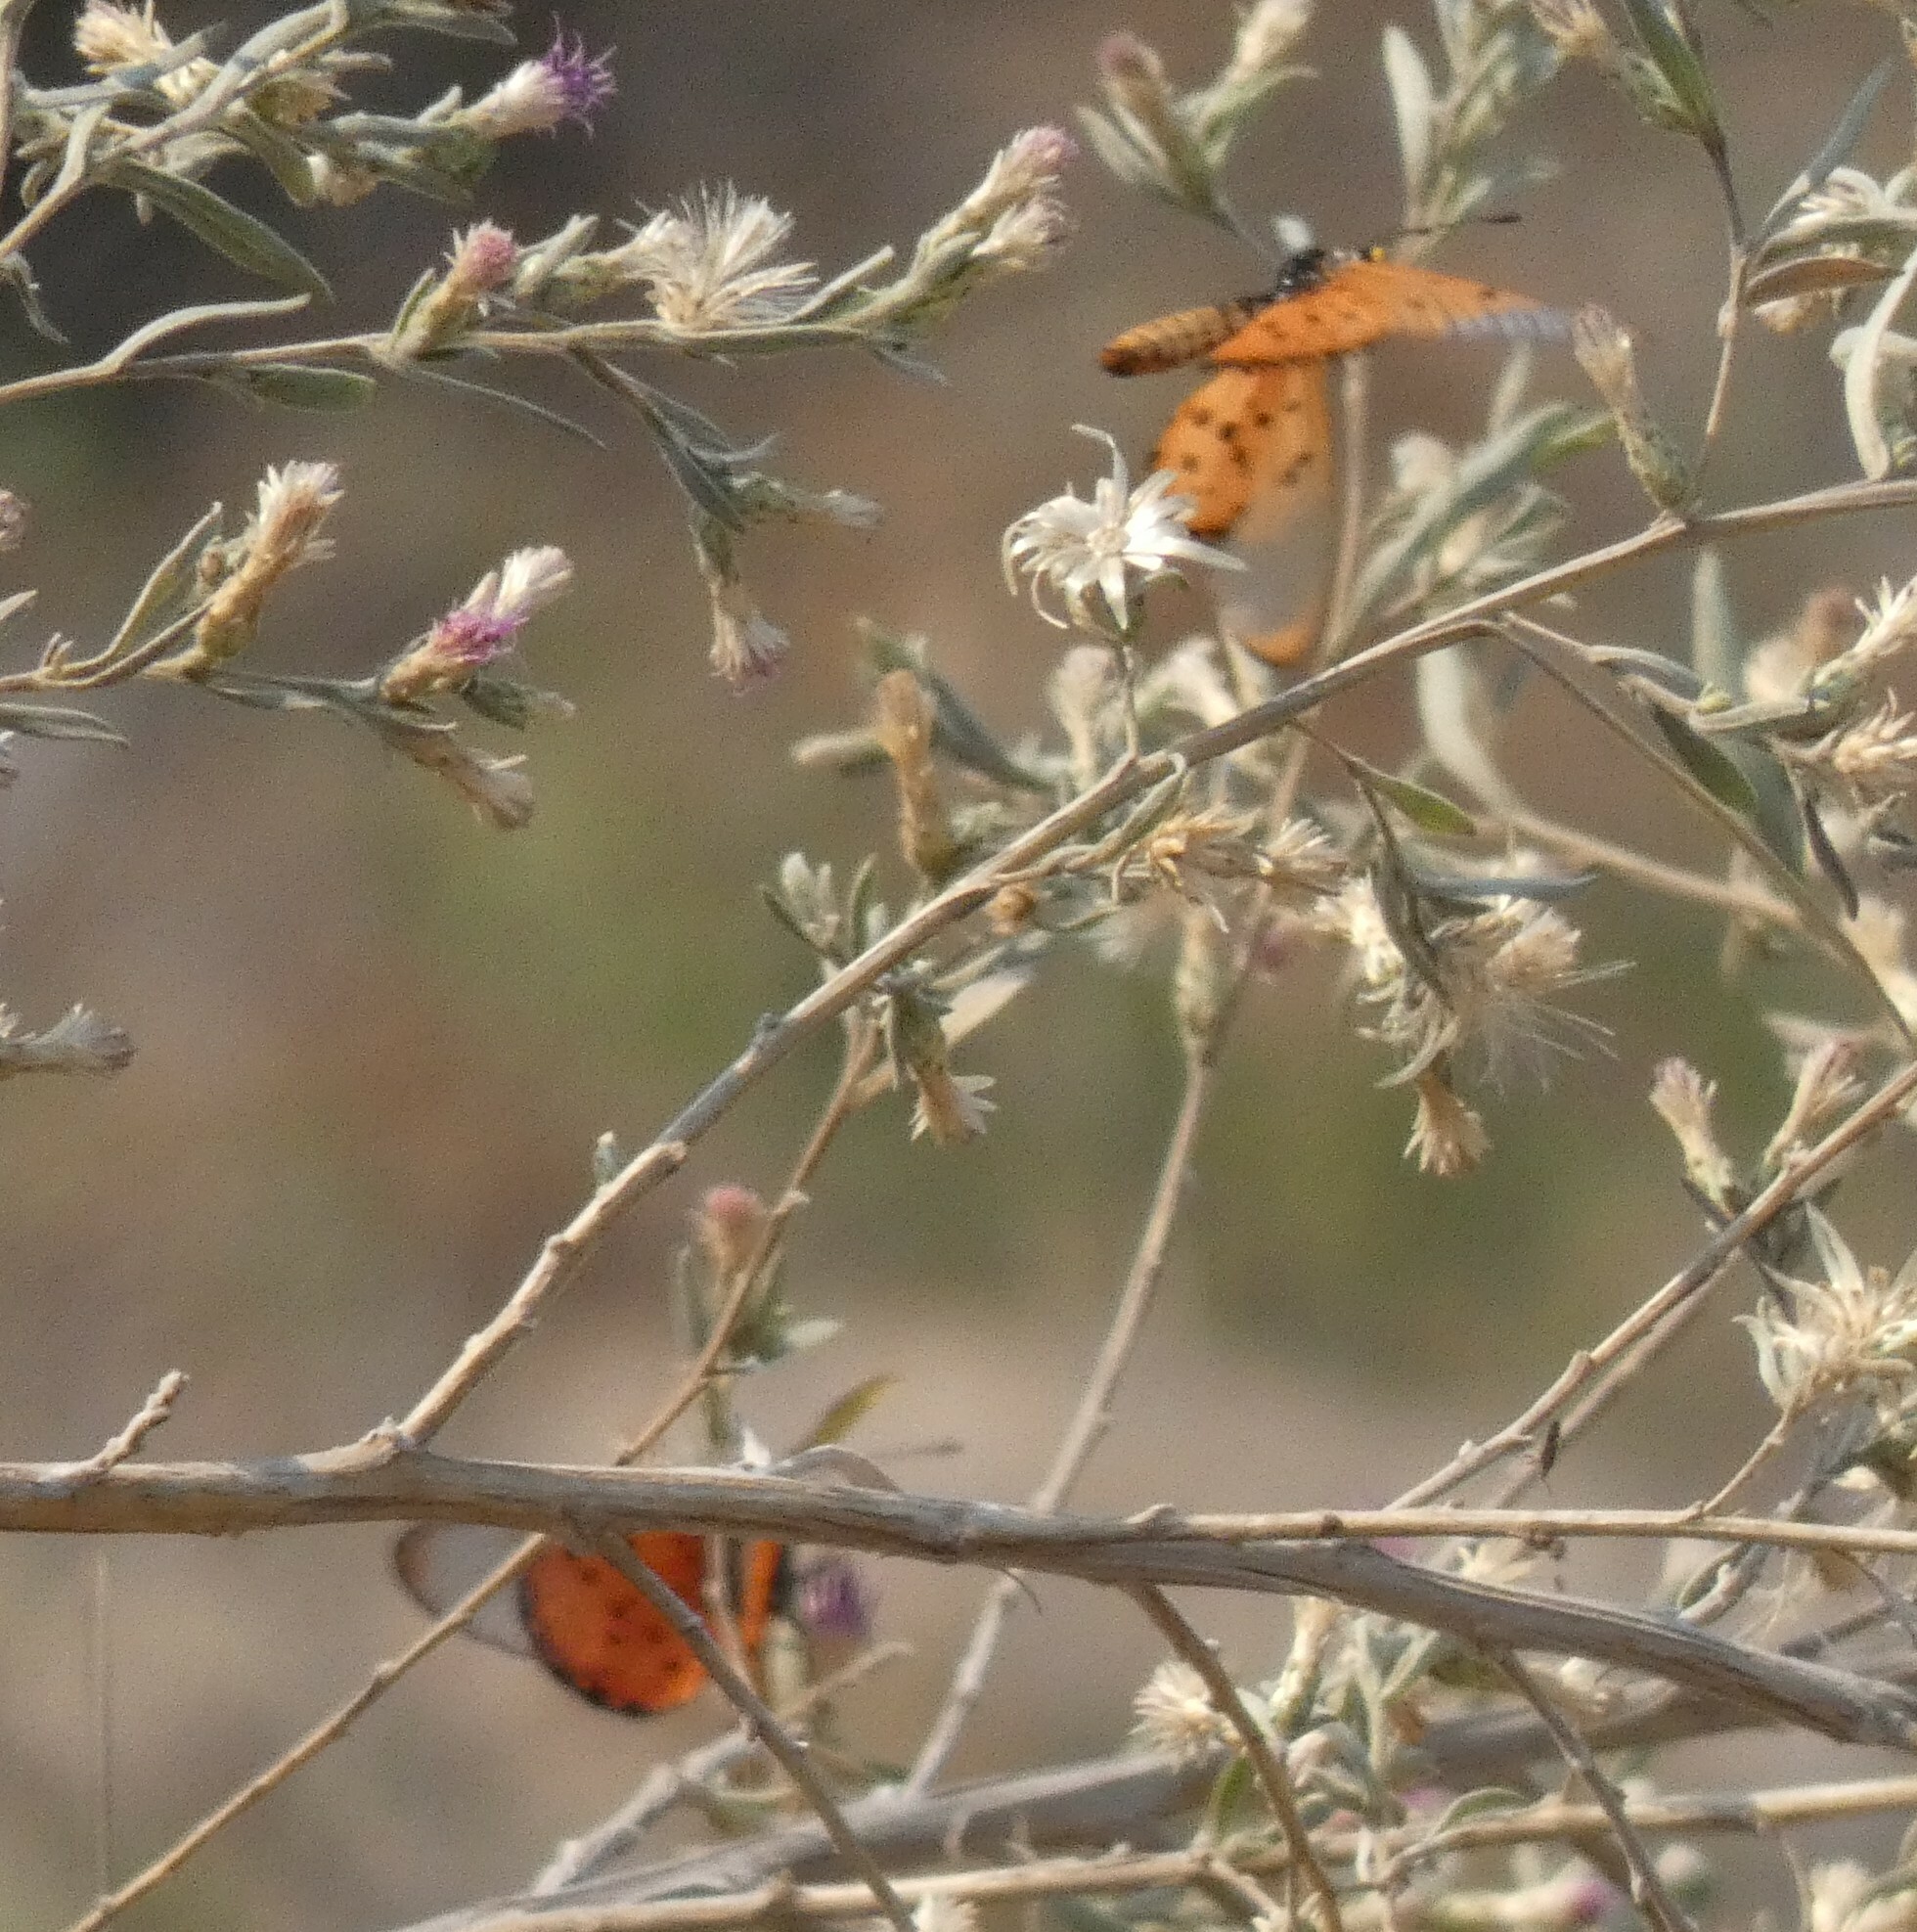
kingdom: Animalia
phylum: Arthropoda
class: Insecta
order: Lepidoptera
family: Nymphalidae
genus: Acraea
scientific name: Acraea neobule
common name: Dancing acraea
